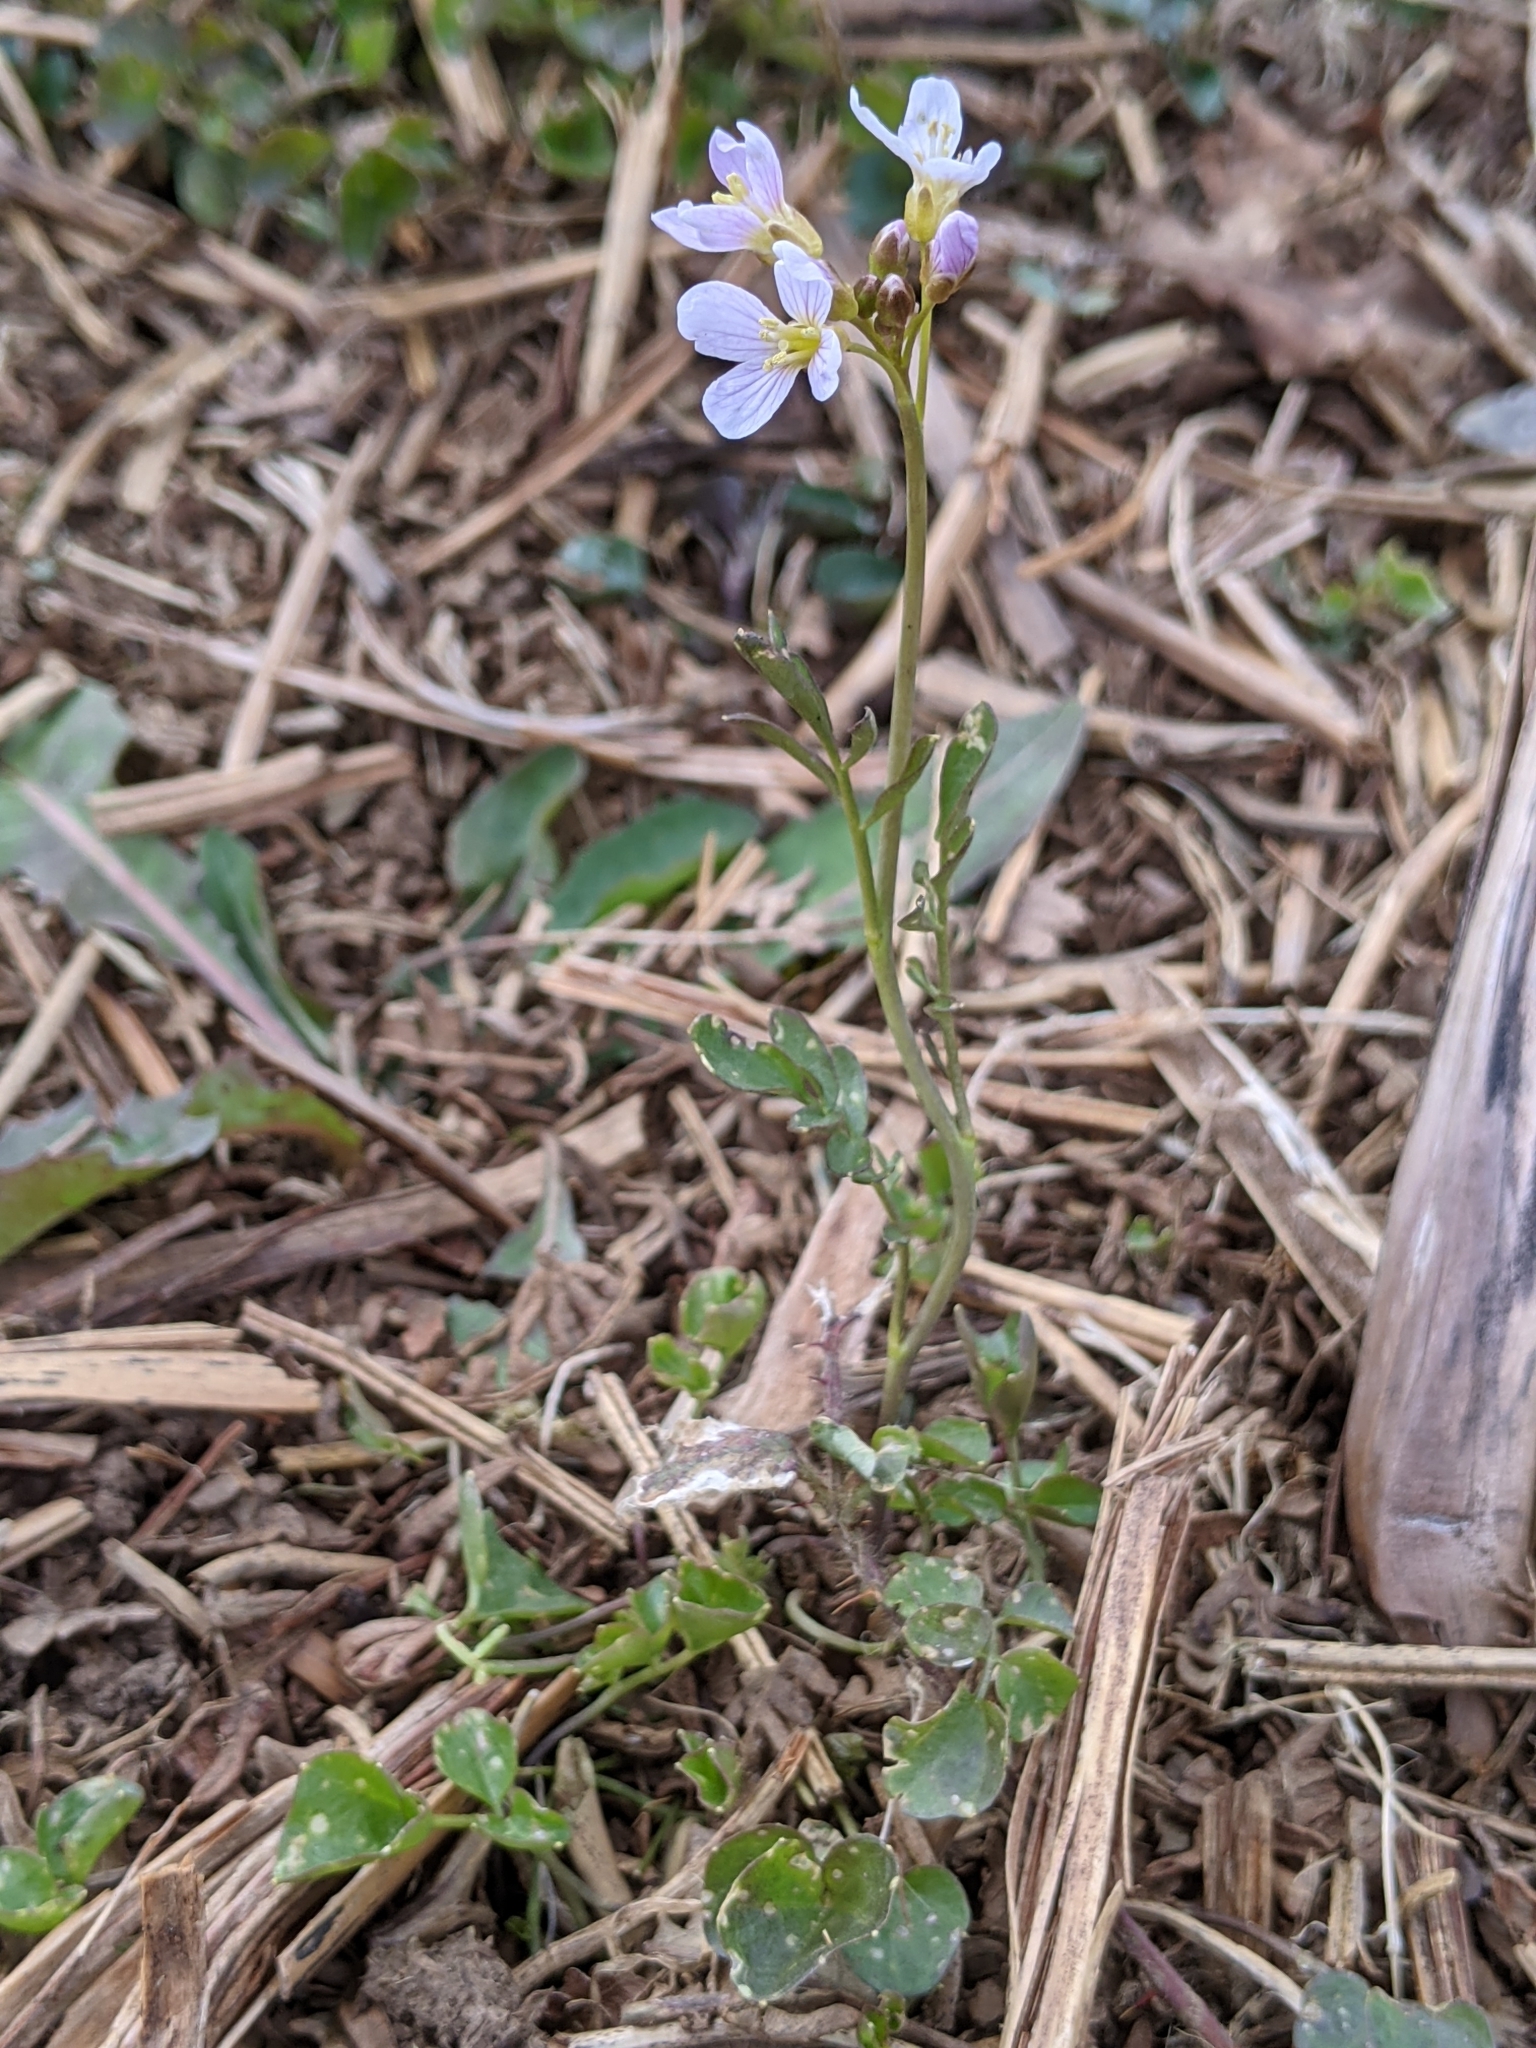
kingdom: Plantae
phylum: Tracheophyta
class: Magnoliopsida
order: Brassicales
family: Brassicaceae
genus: Cardamine
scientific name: Cardamine pratensis
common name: Cuckoo flower
